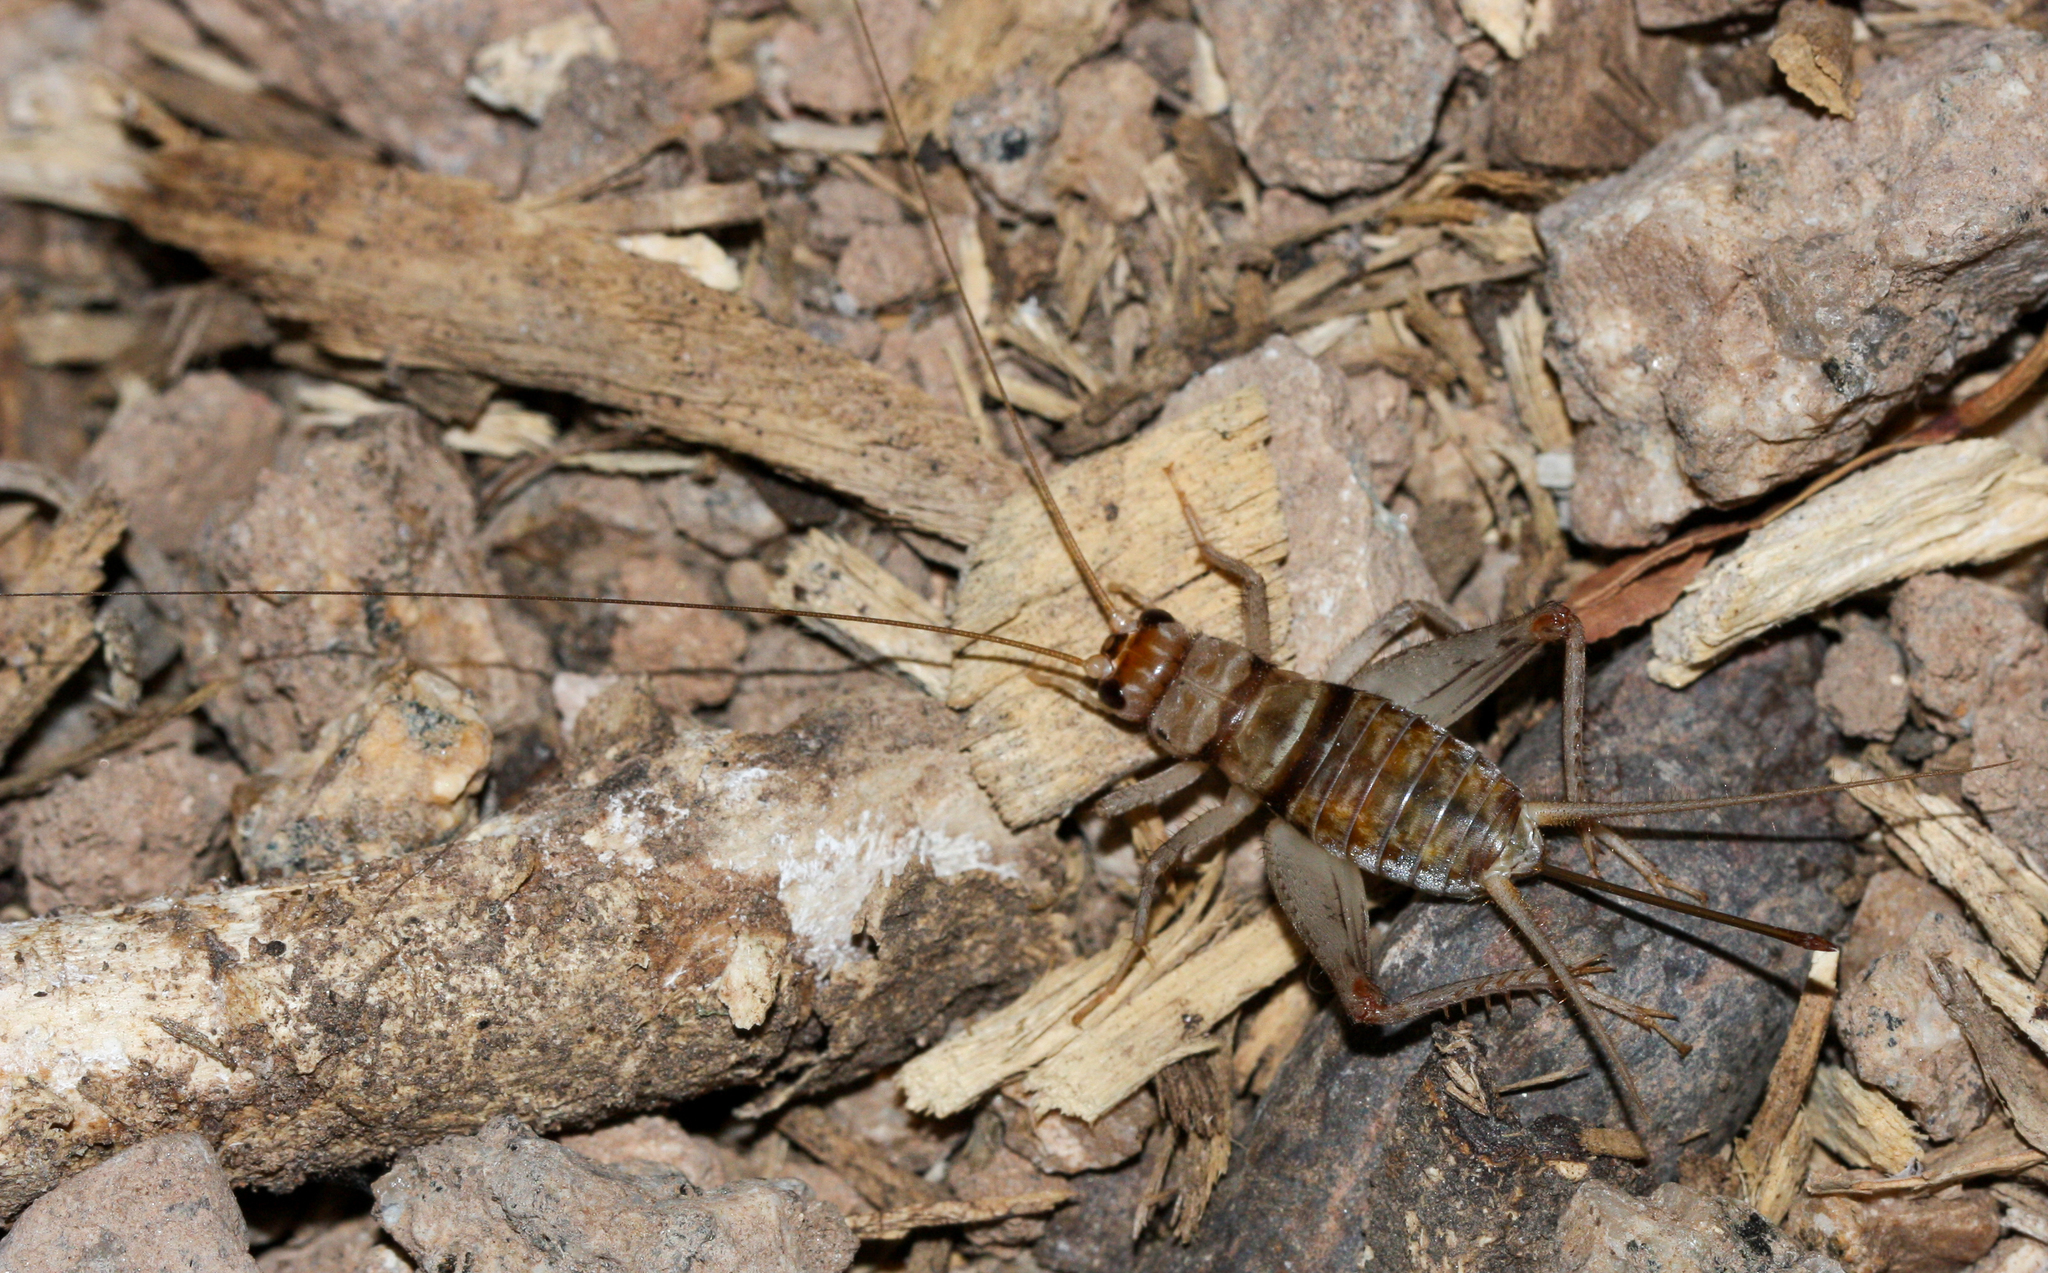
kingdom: Animalia
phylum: Arthropoda
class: Insecta
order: Orthoptera
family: Gryllidae
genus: Gryllodes
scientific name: Gryllodes sigillatus
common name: Tropical house cricket
